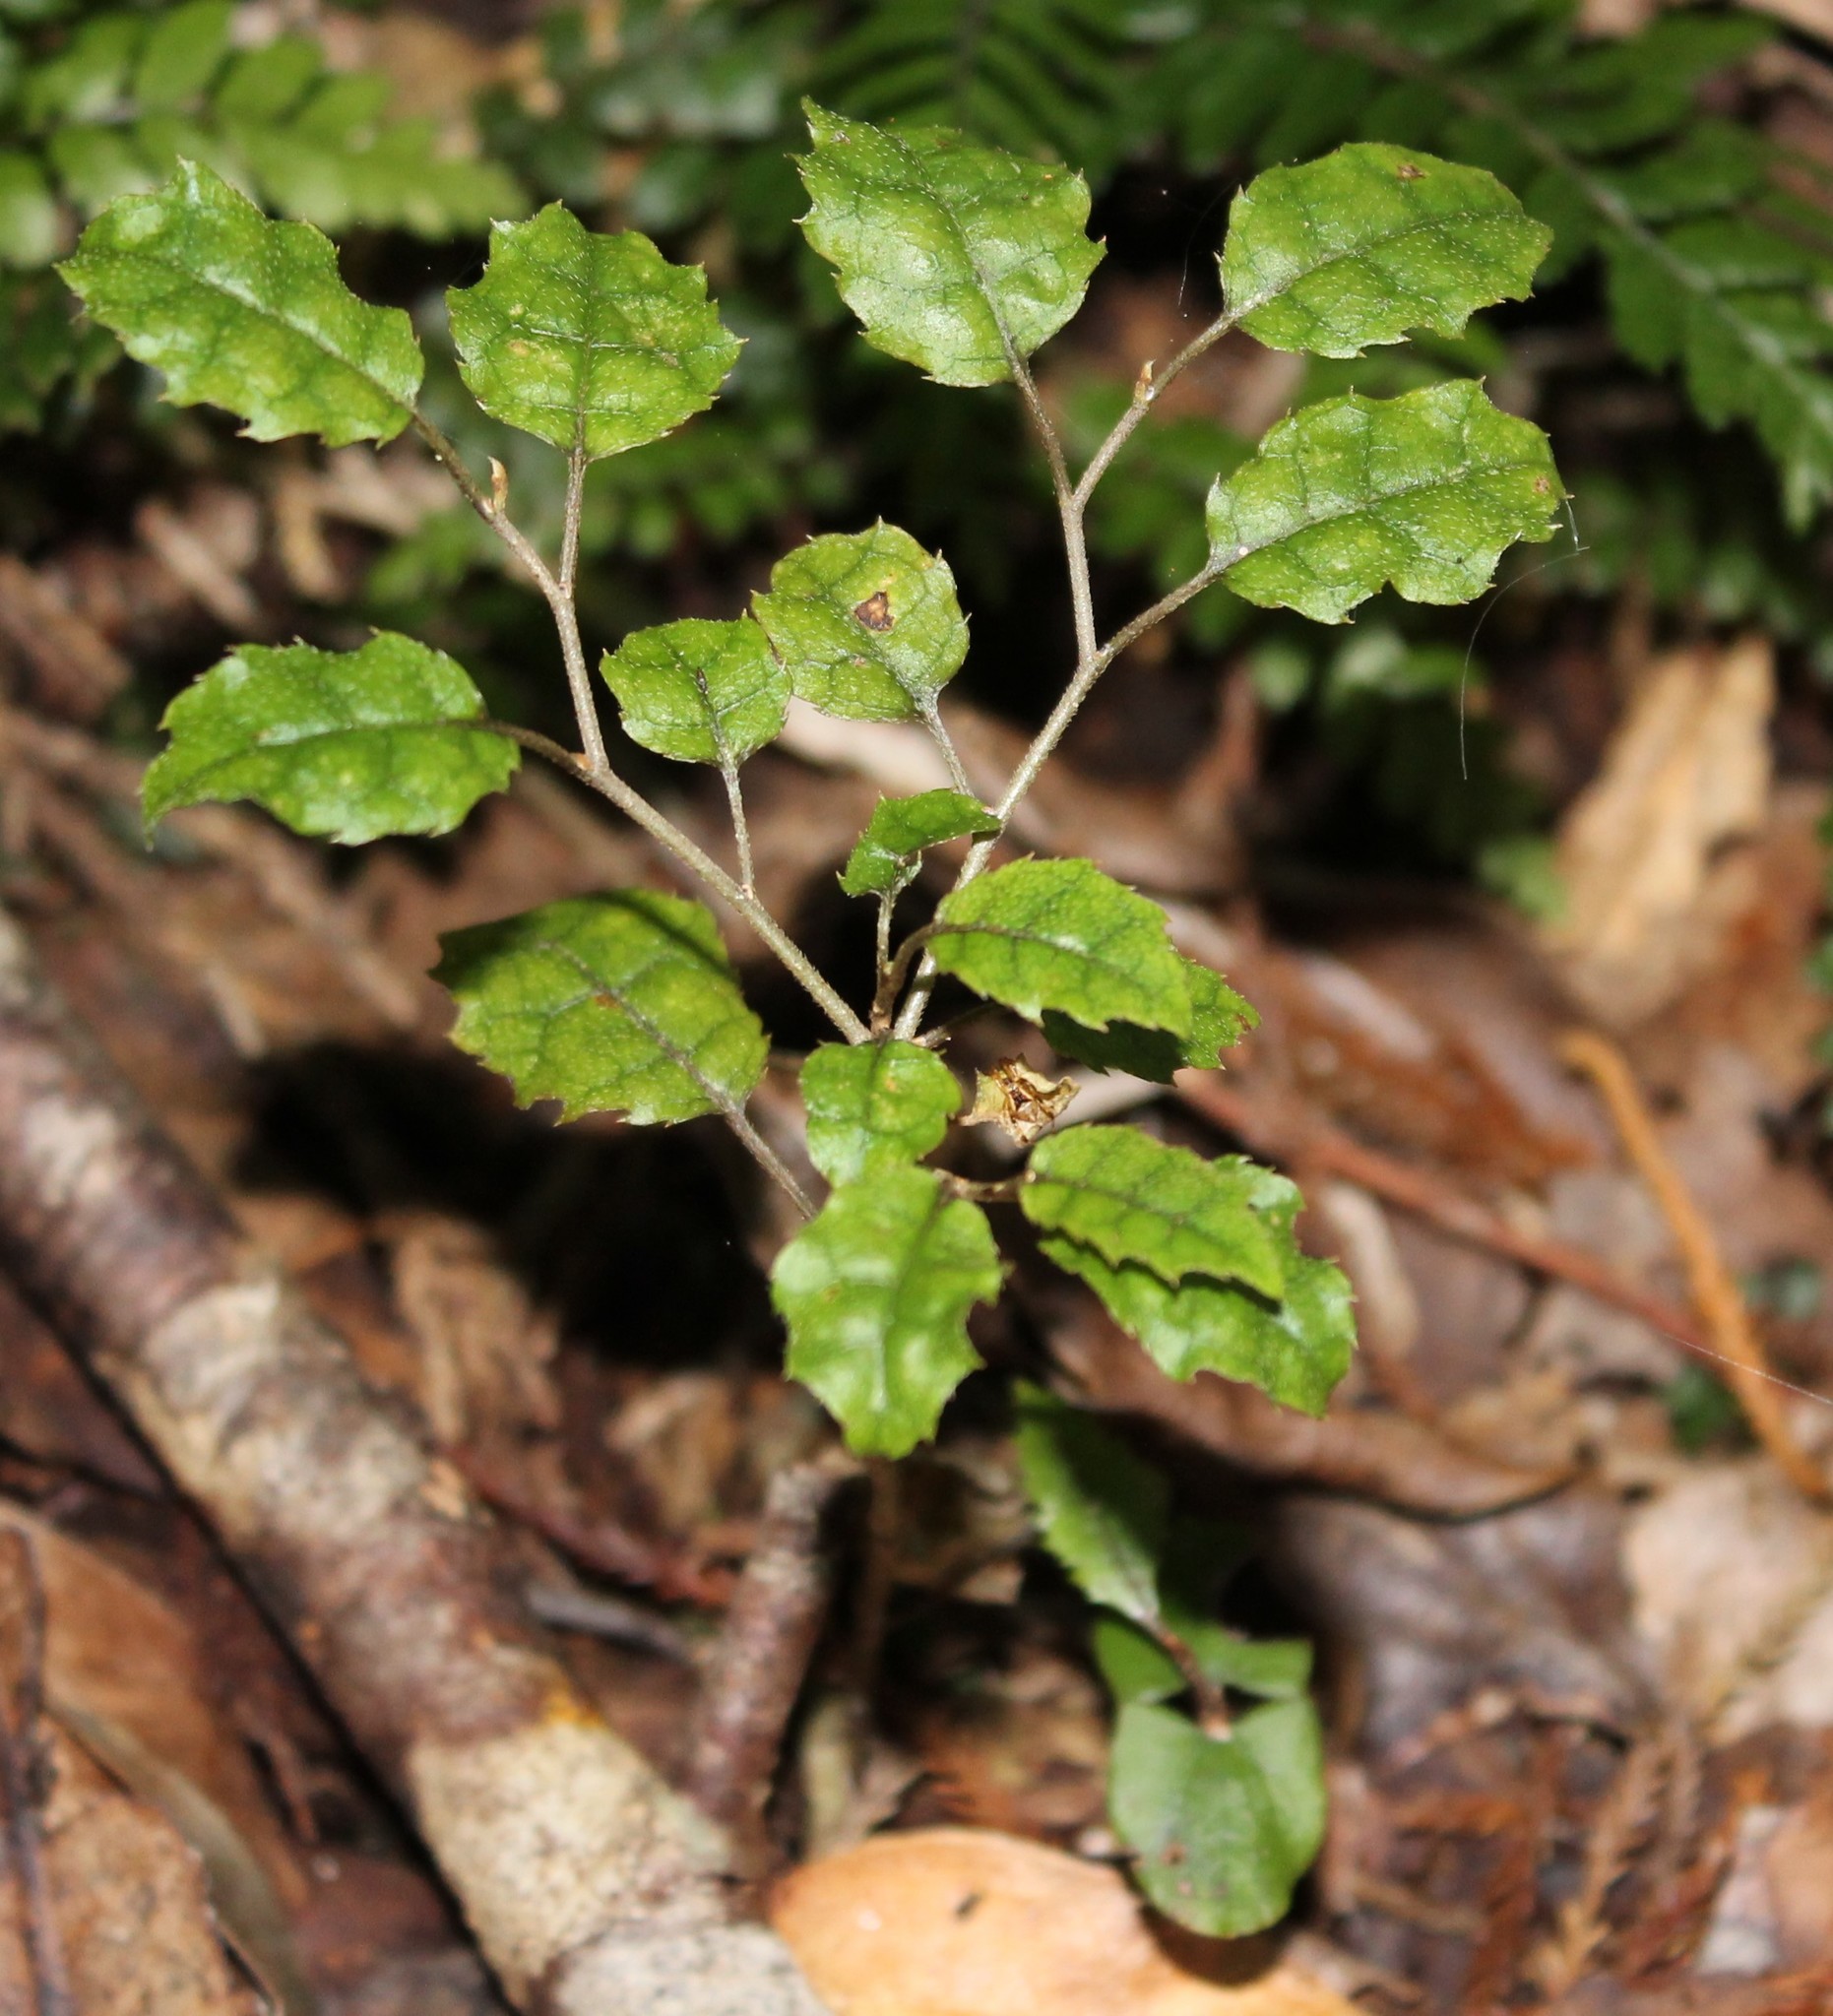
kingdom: Plantae
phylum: Tracheophyta
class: Magnoliopsida
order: Asterales
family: Rousseaceae
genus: Carpodetus
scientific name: Carpodetus serratus
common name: White mapau
